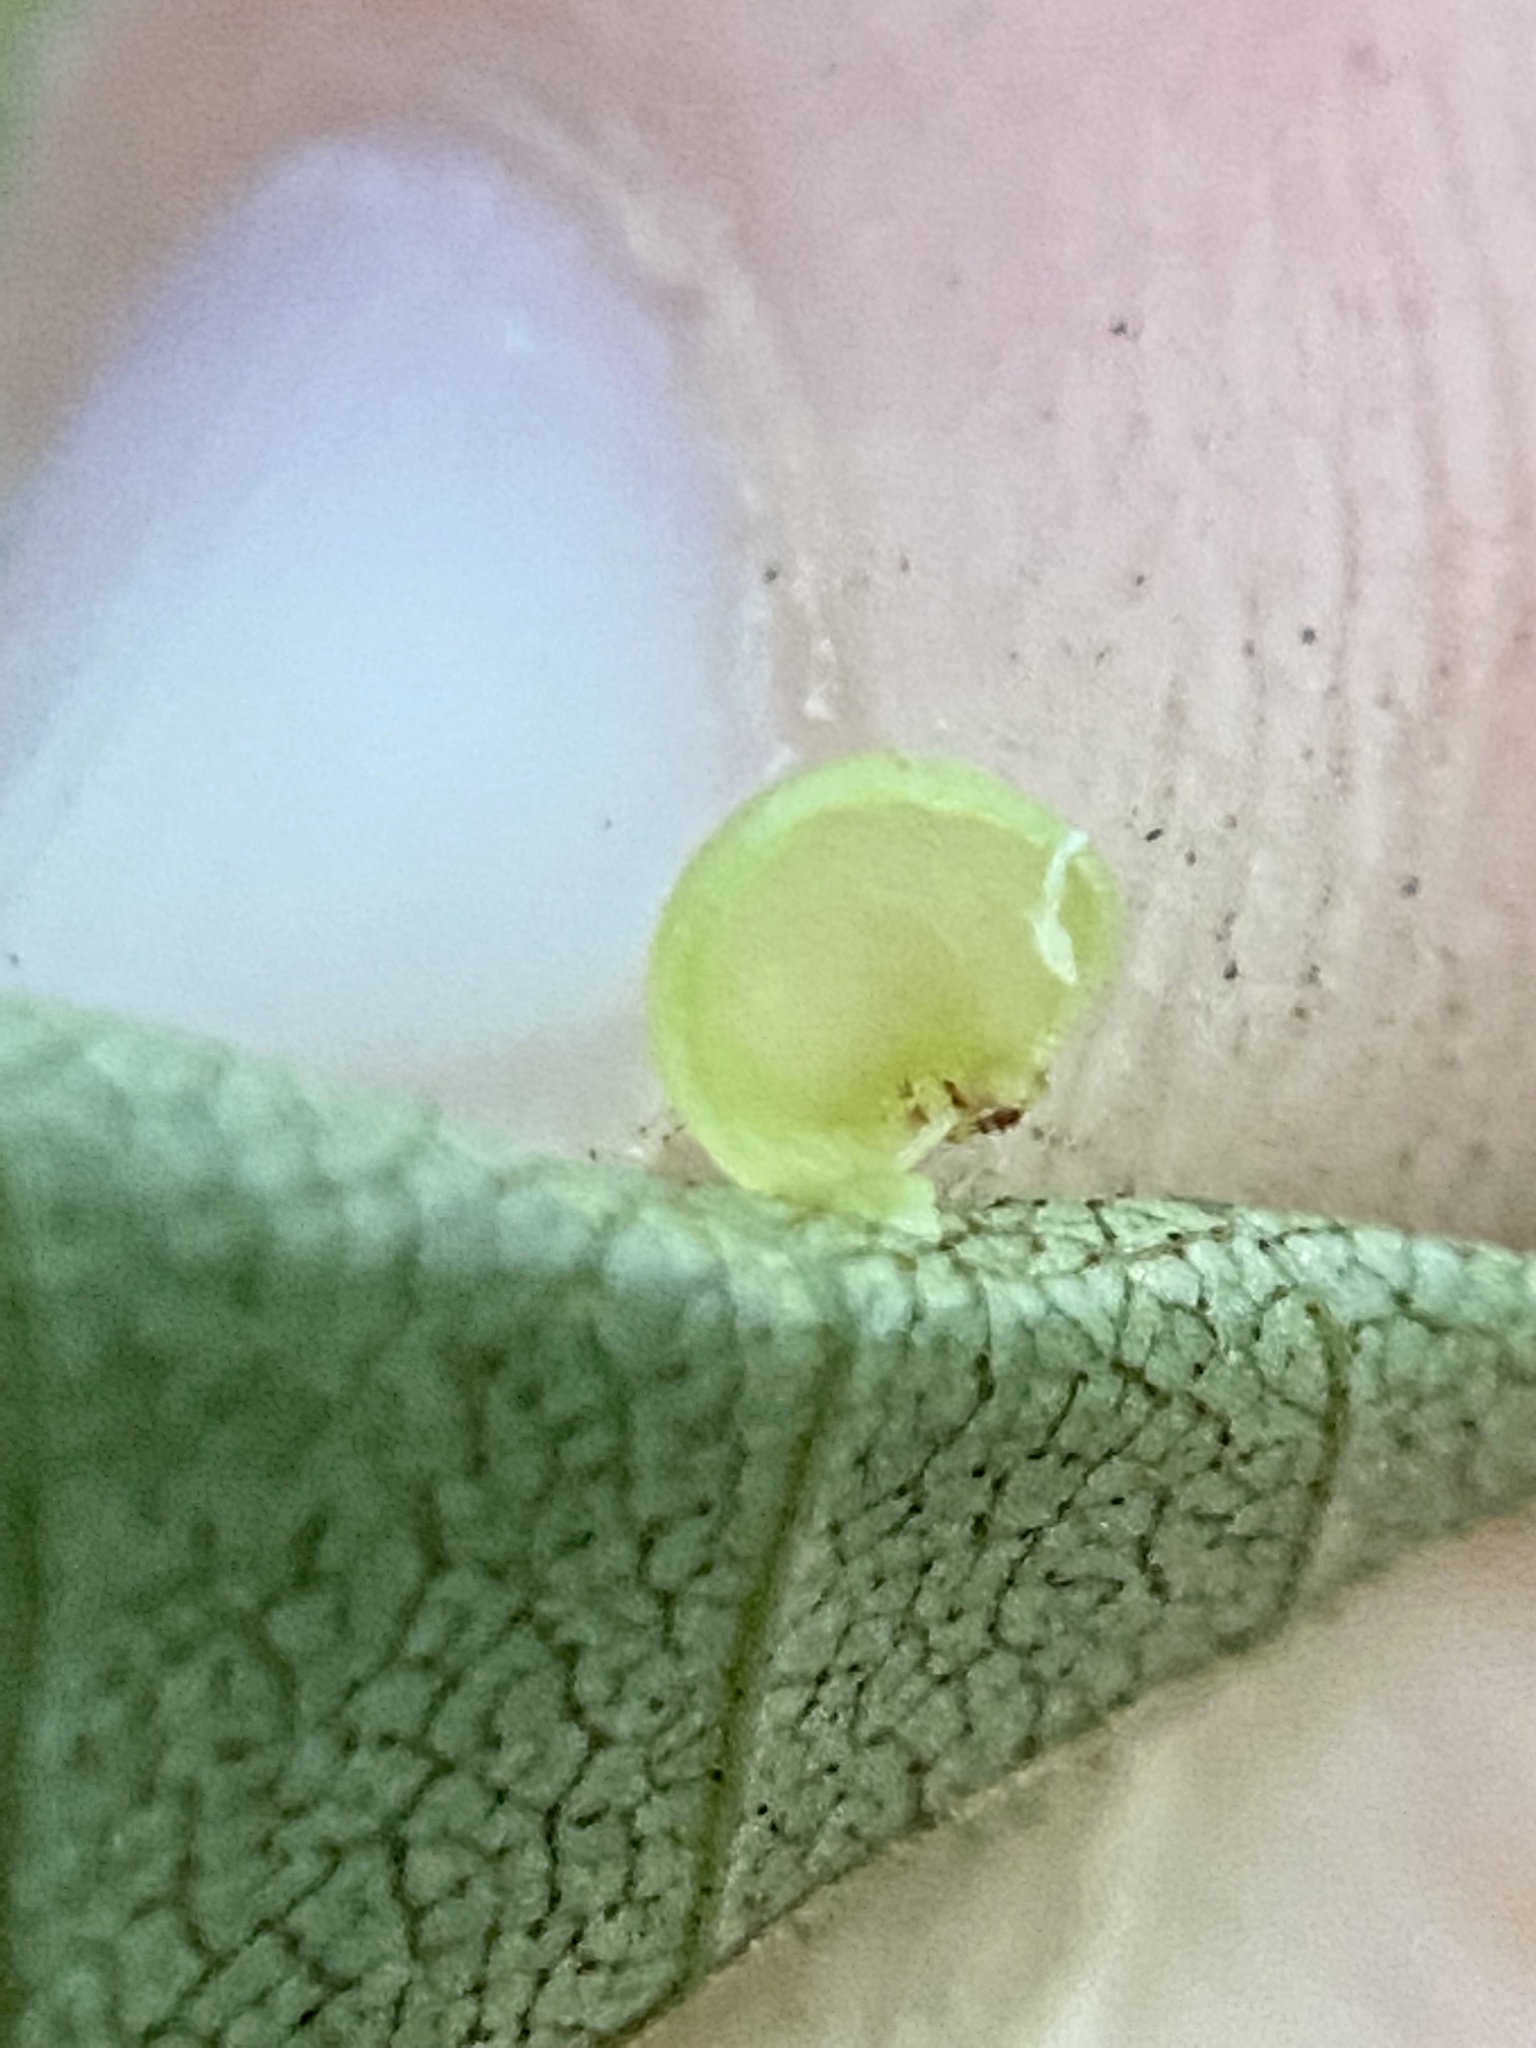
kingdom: Animalia
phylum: Arthropoda
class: Insecta
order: Diptera
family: Cecidomyiidae
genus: Caryomyia
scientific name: Caryomyia leviglobus
